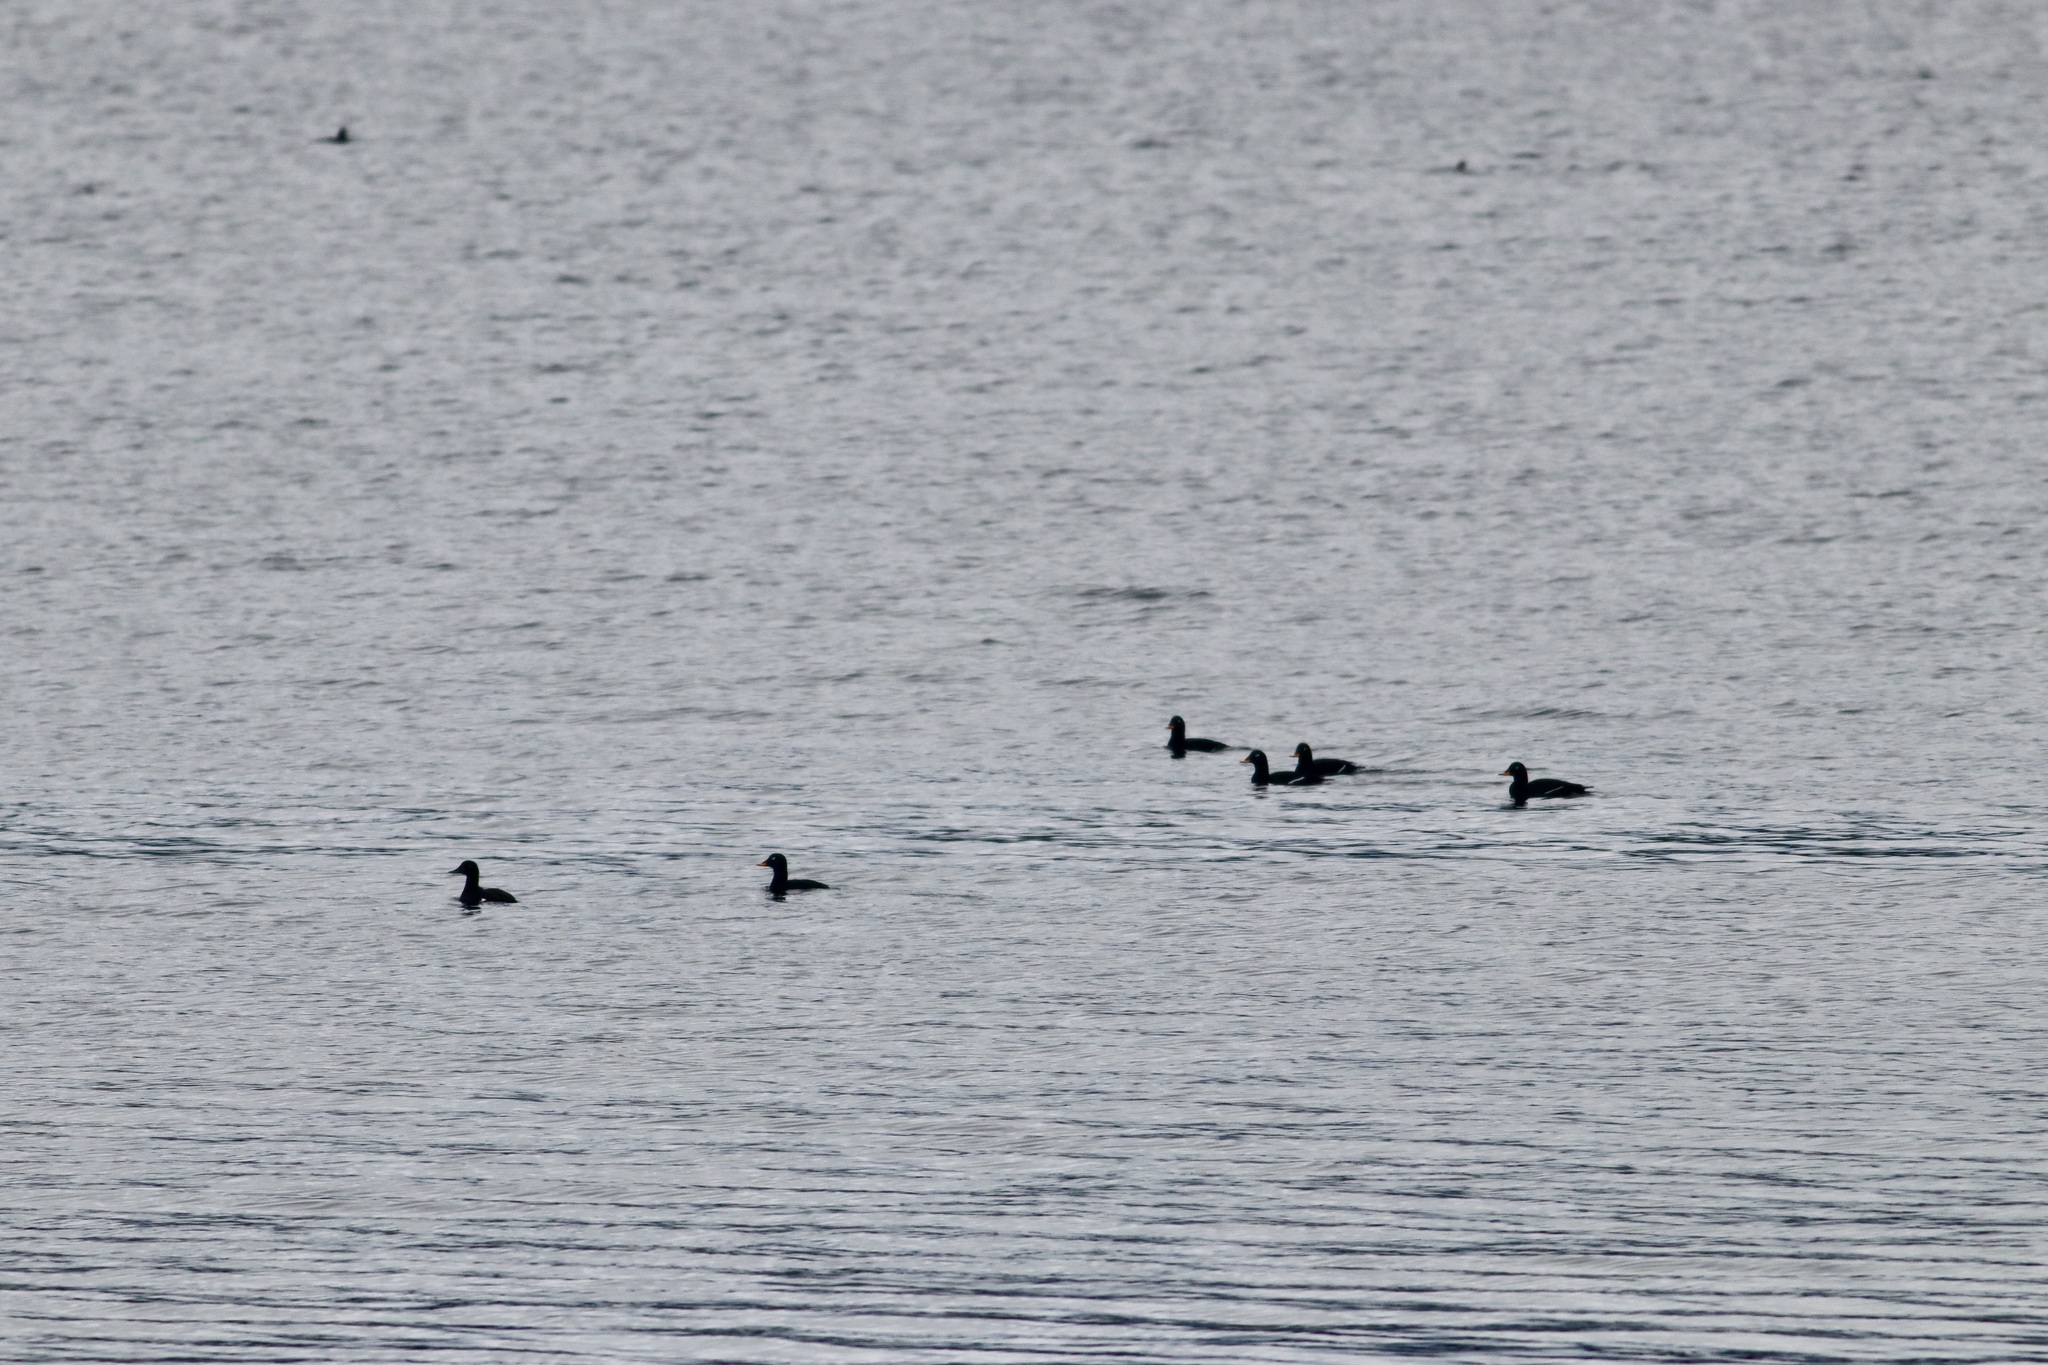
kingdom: Animalia
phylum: Chordata
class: Aves
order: Anseriformes
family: Anatidae
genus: Melanitta
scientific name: Melanitta fusca
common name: Velvet scoter
